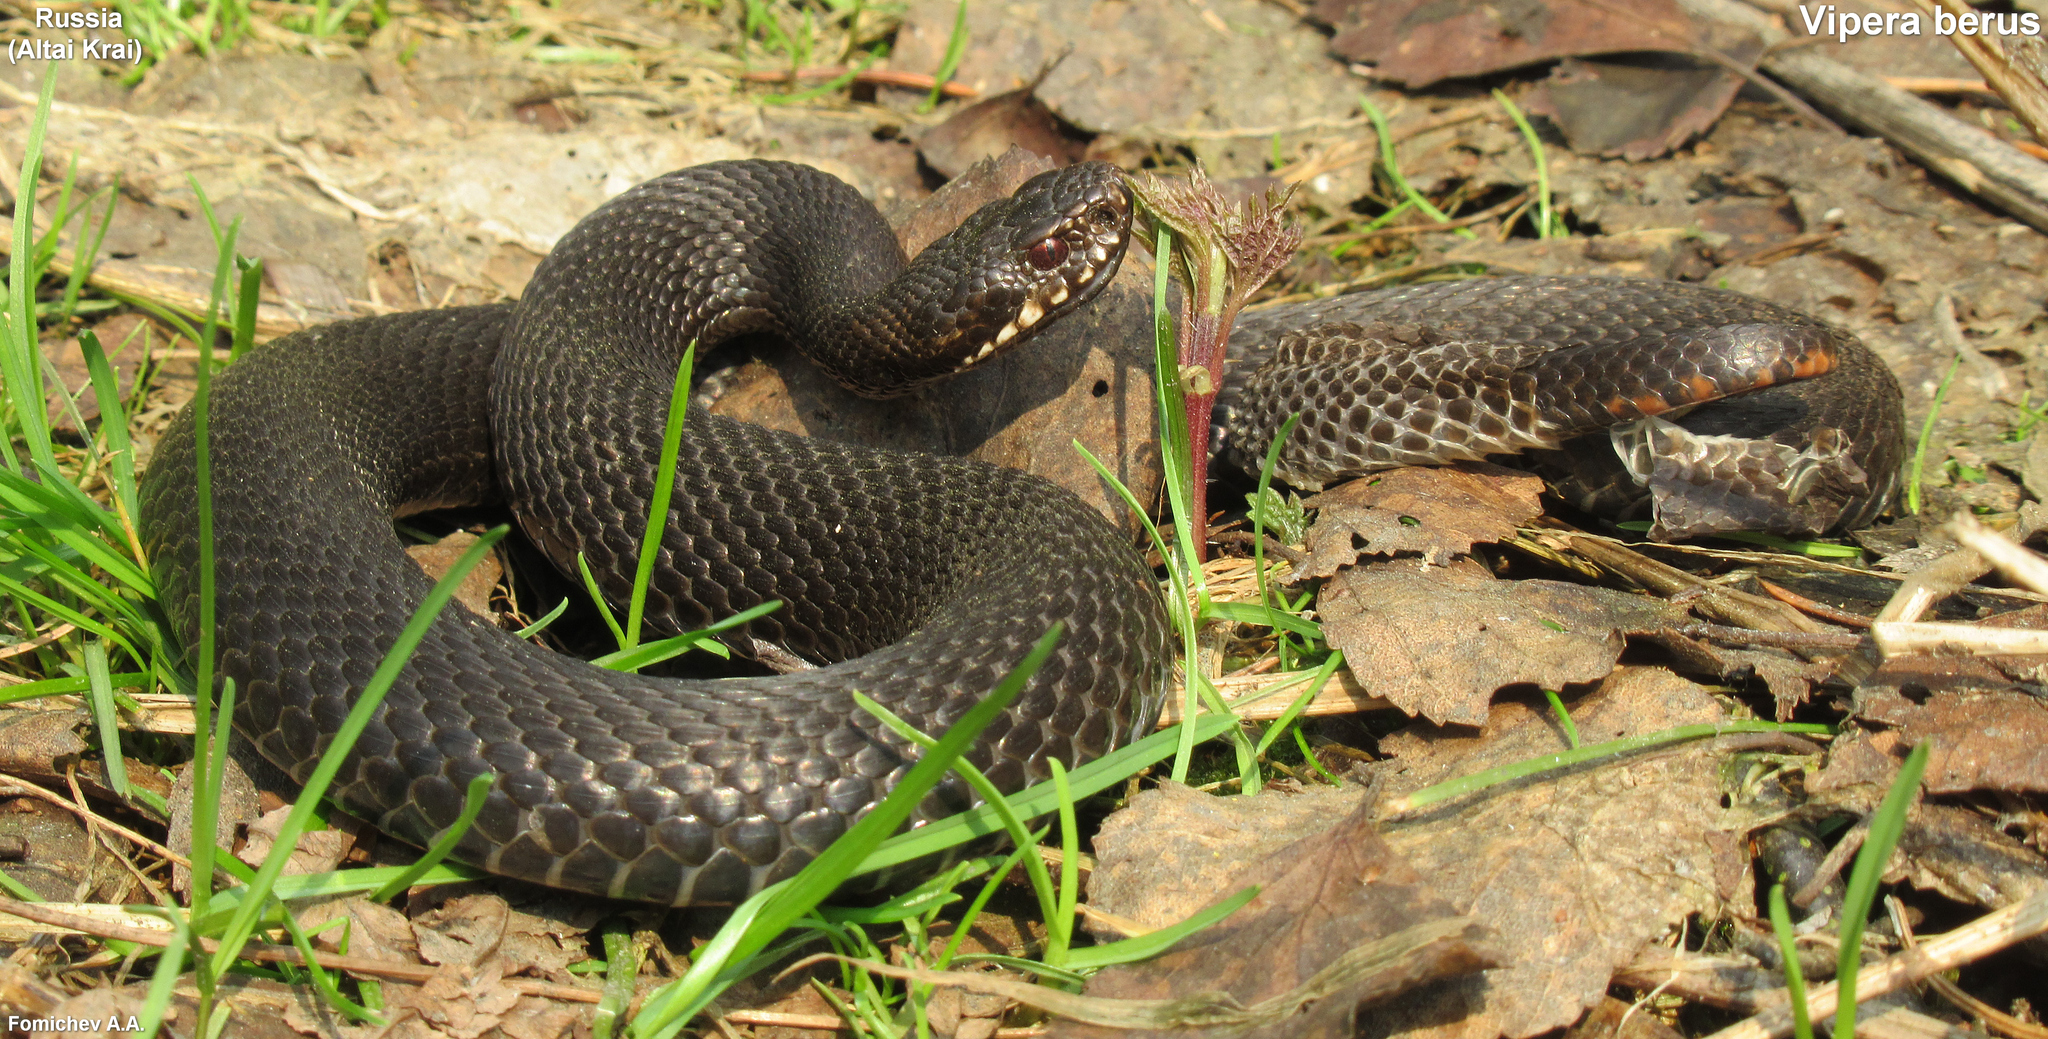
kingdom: Animalia
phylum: Chordata
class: Squamata
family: Viperidae
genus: Vipera
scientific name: Vipera berus
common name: Adder
